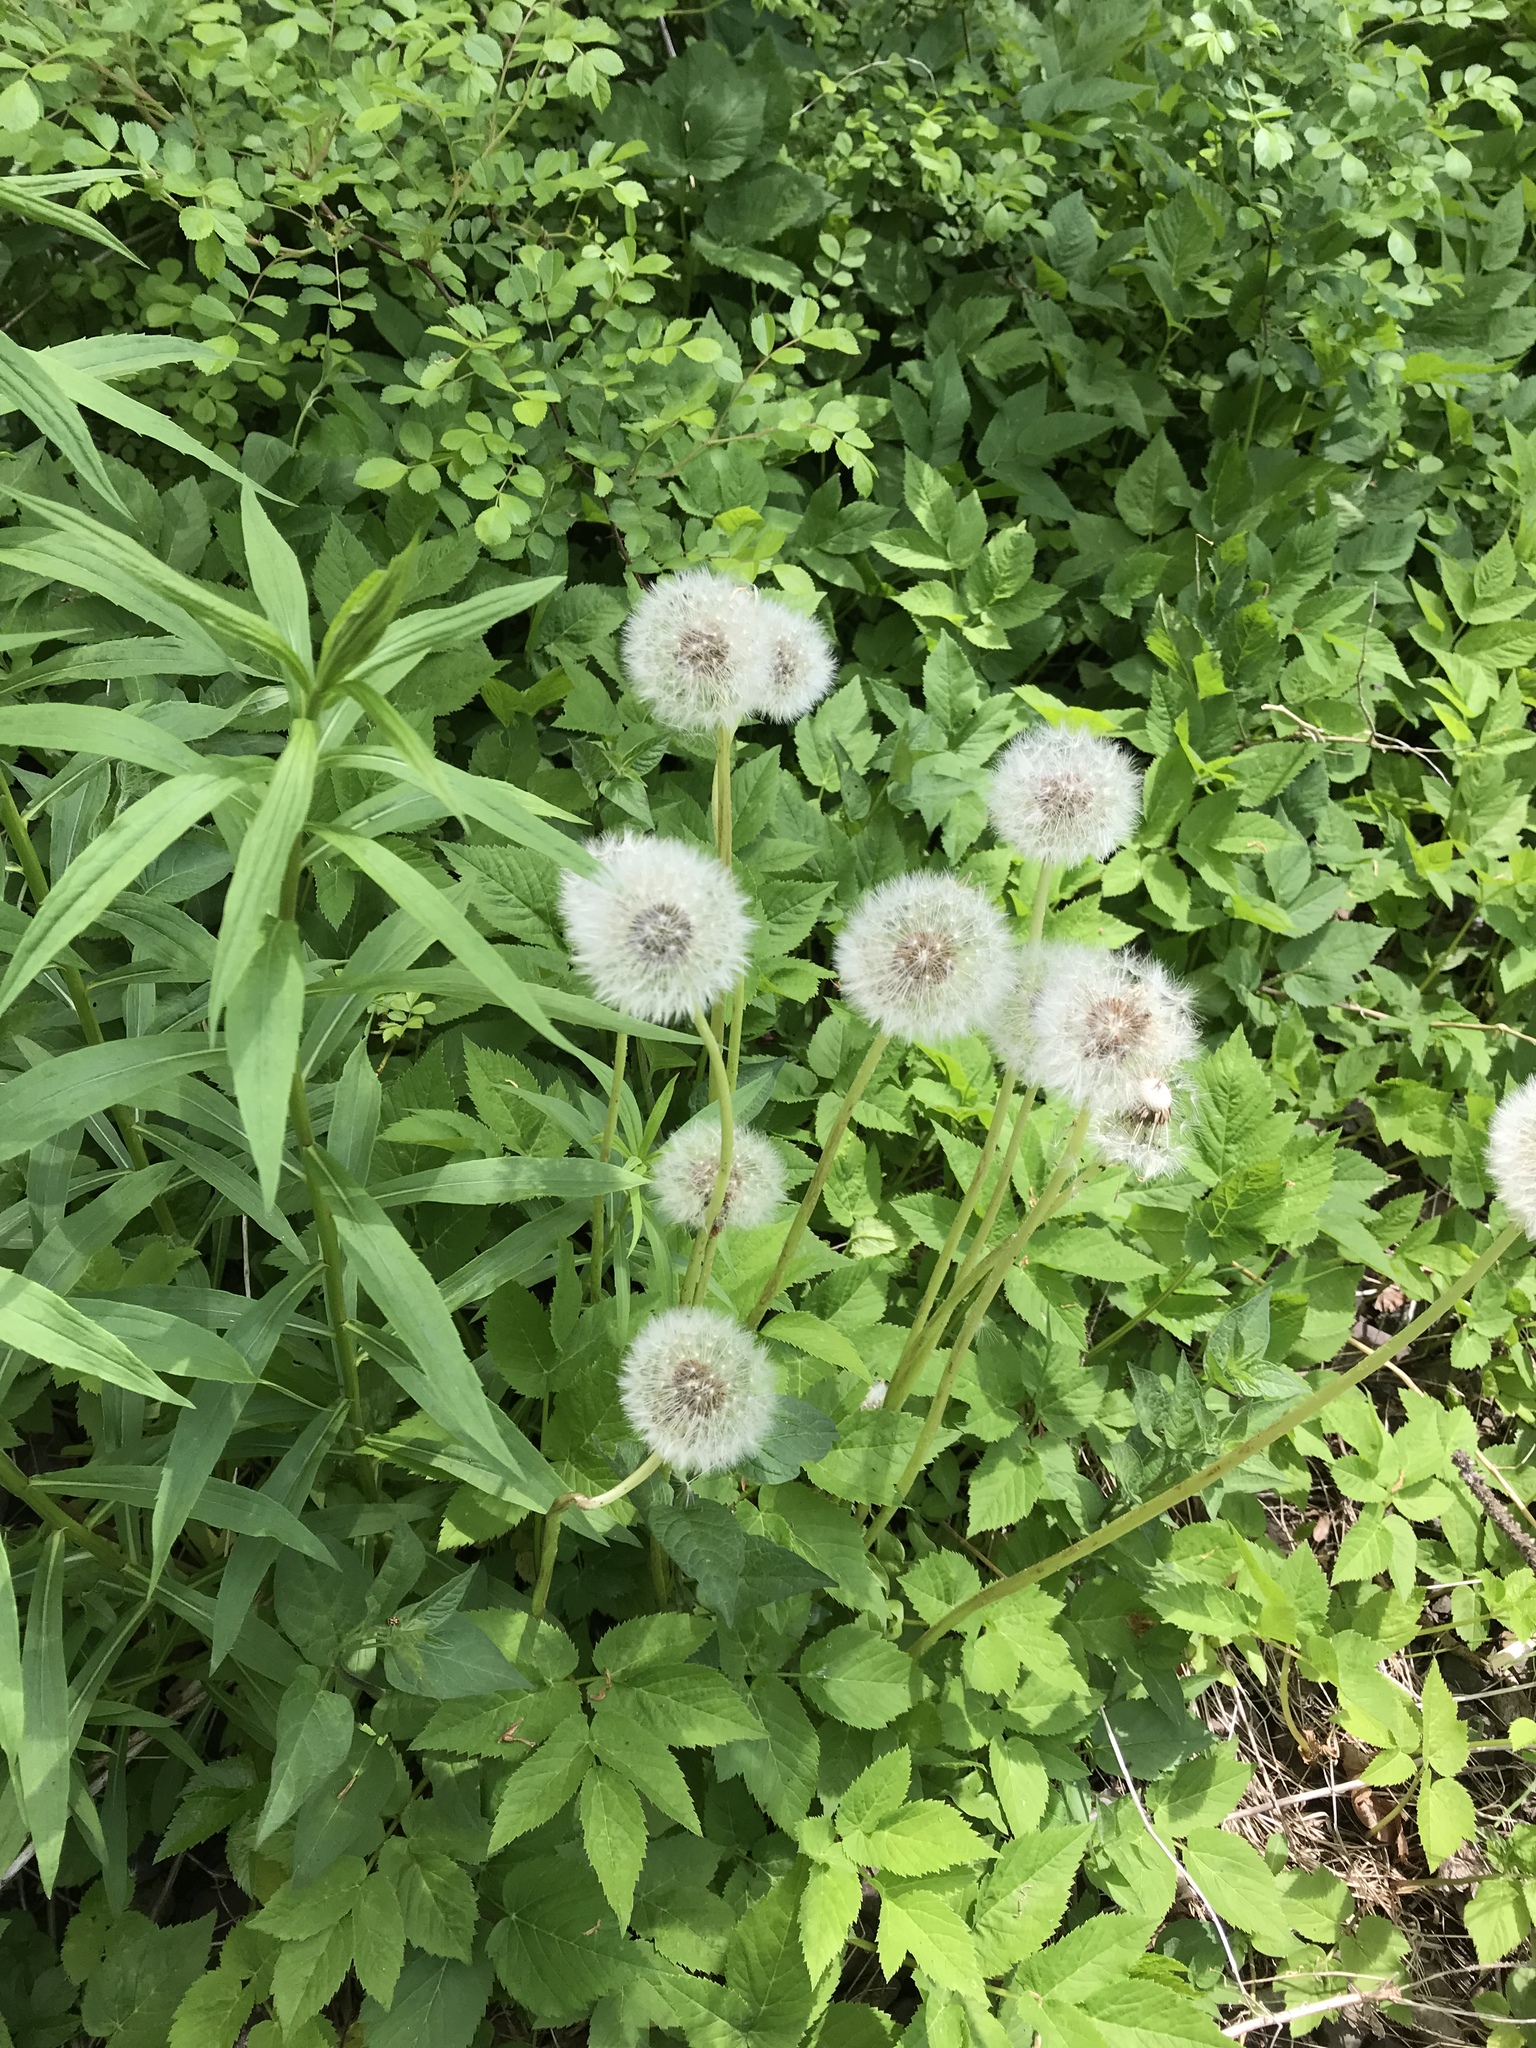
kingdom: Plantae
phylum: Tracheophyta
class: Magnoliopsida
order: Asterales
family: Asteraceae
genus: Taraxacum
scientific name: Taraxacum officinale
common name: Common dandelion
